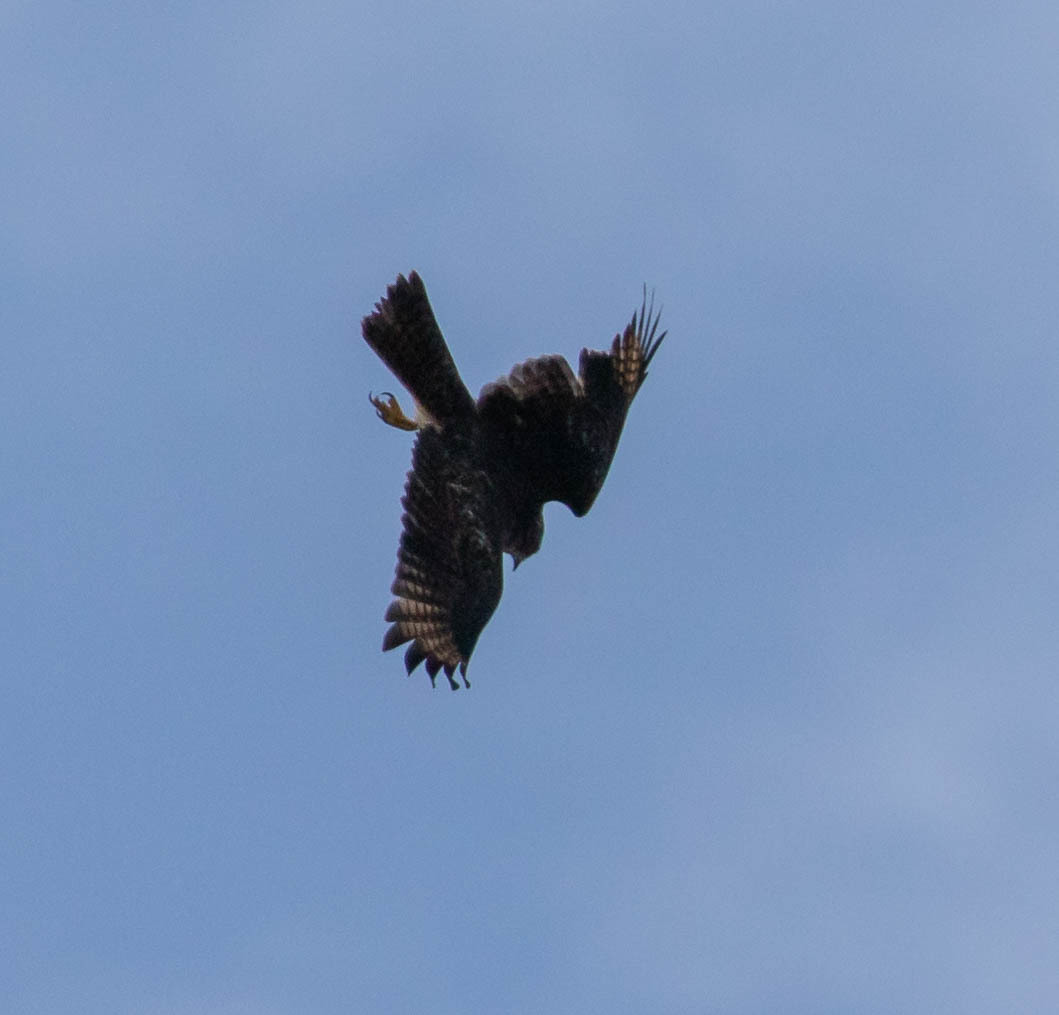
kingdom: Animalia
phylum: Chordata
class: Aves
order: Accipitriformes
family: Accipitridae
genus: Buteo
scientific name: Buteo lineatus
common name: Red-shouldered hawk
